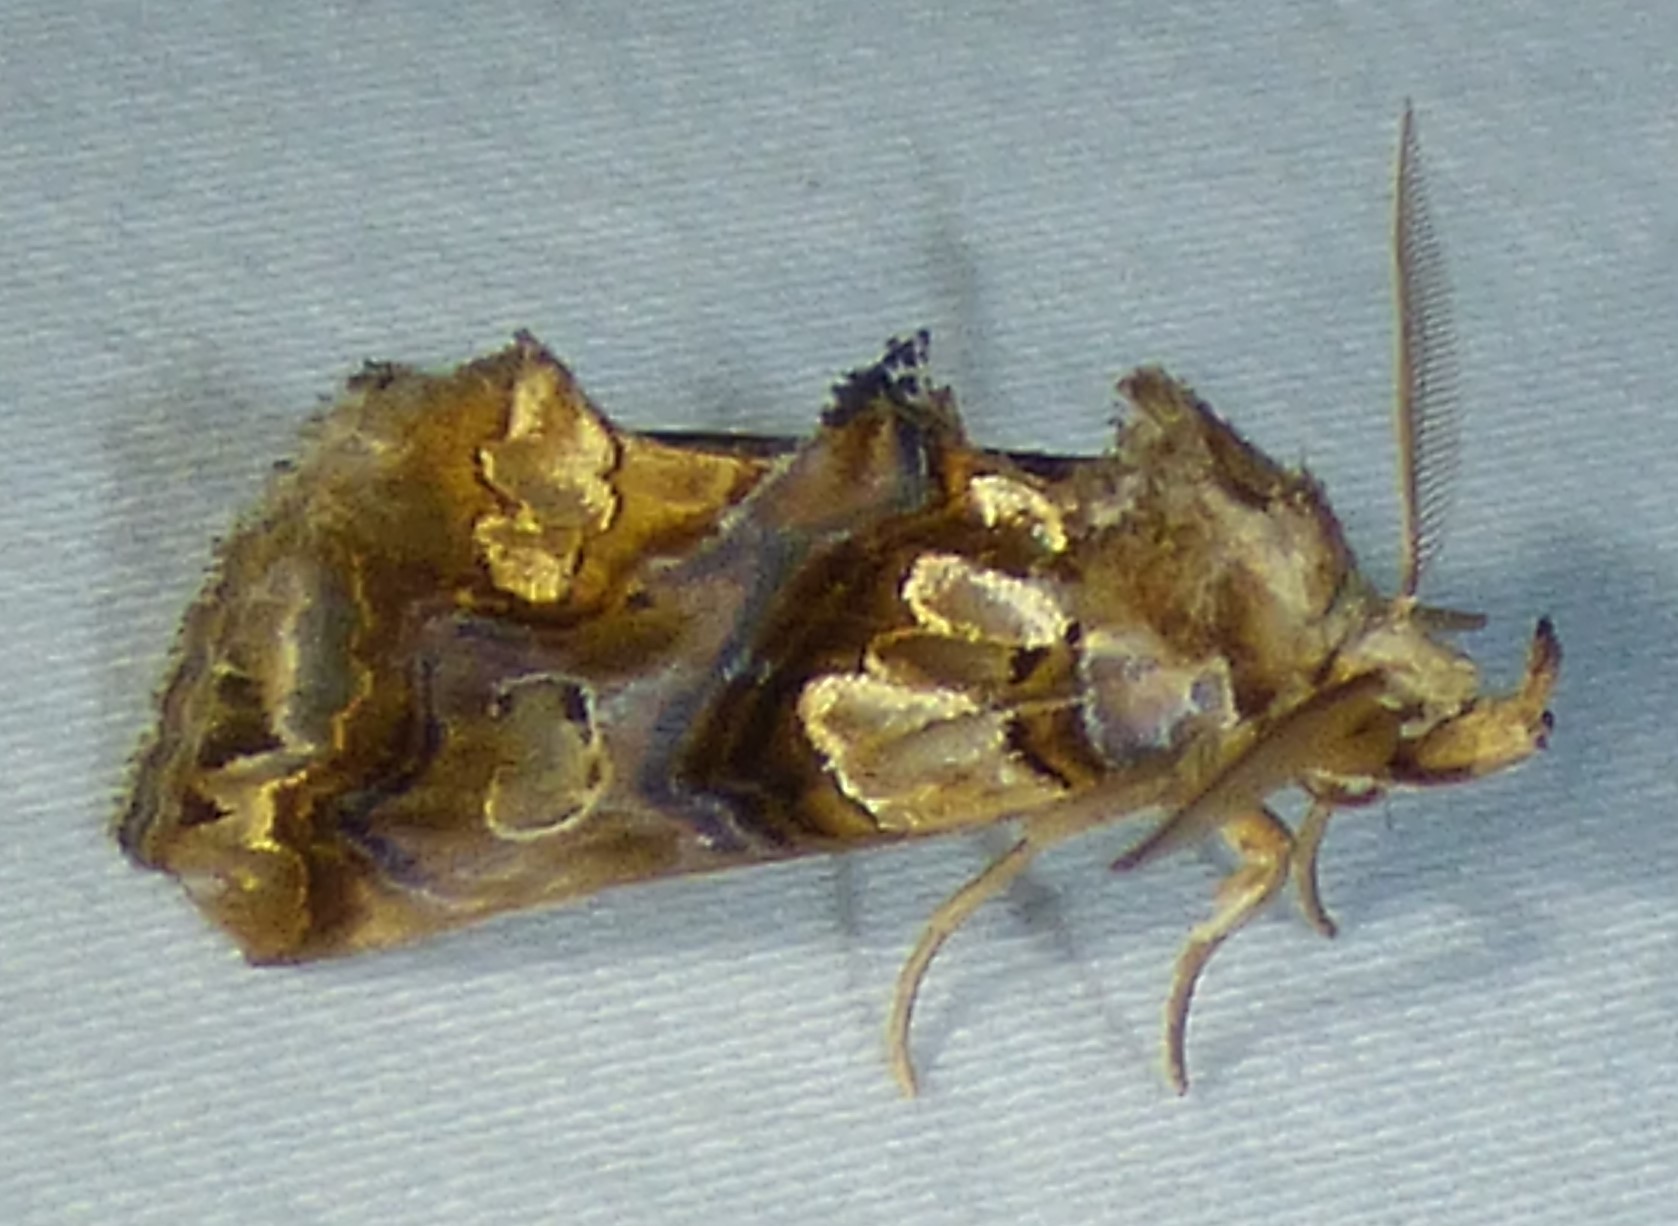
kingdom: Animalia
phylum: Arthropoda
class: Insecta
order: Lepidoptera
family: Erebidae
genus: Plusiodonta
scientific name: Plusiodonta compressipalpis
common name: Moonseed moth
